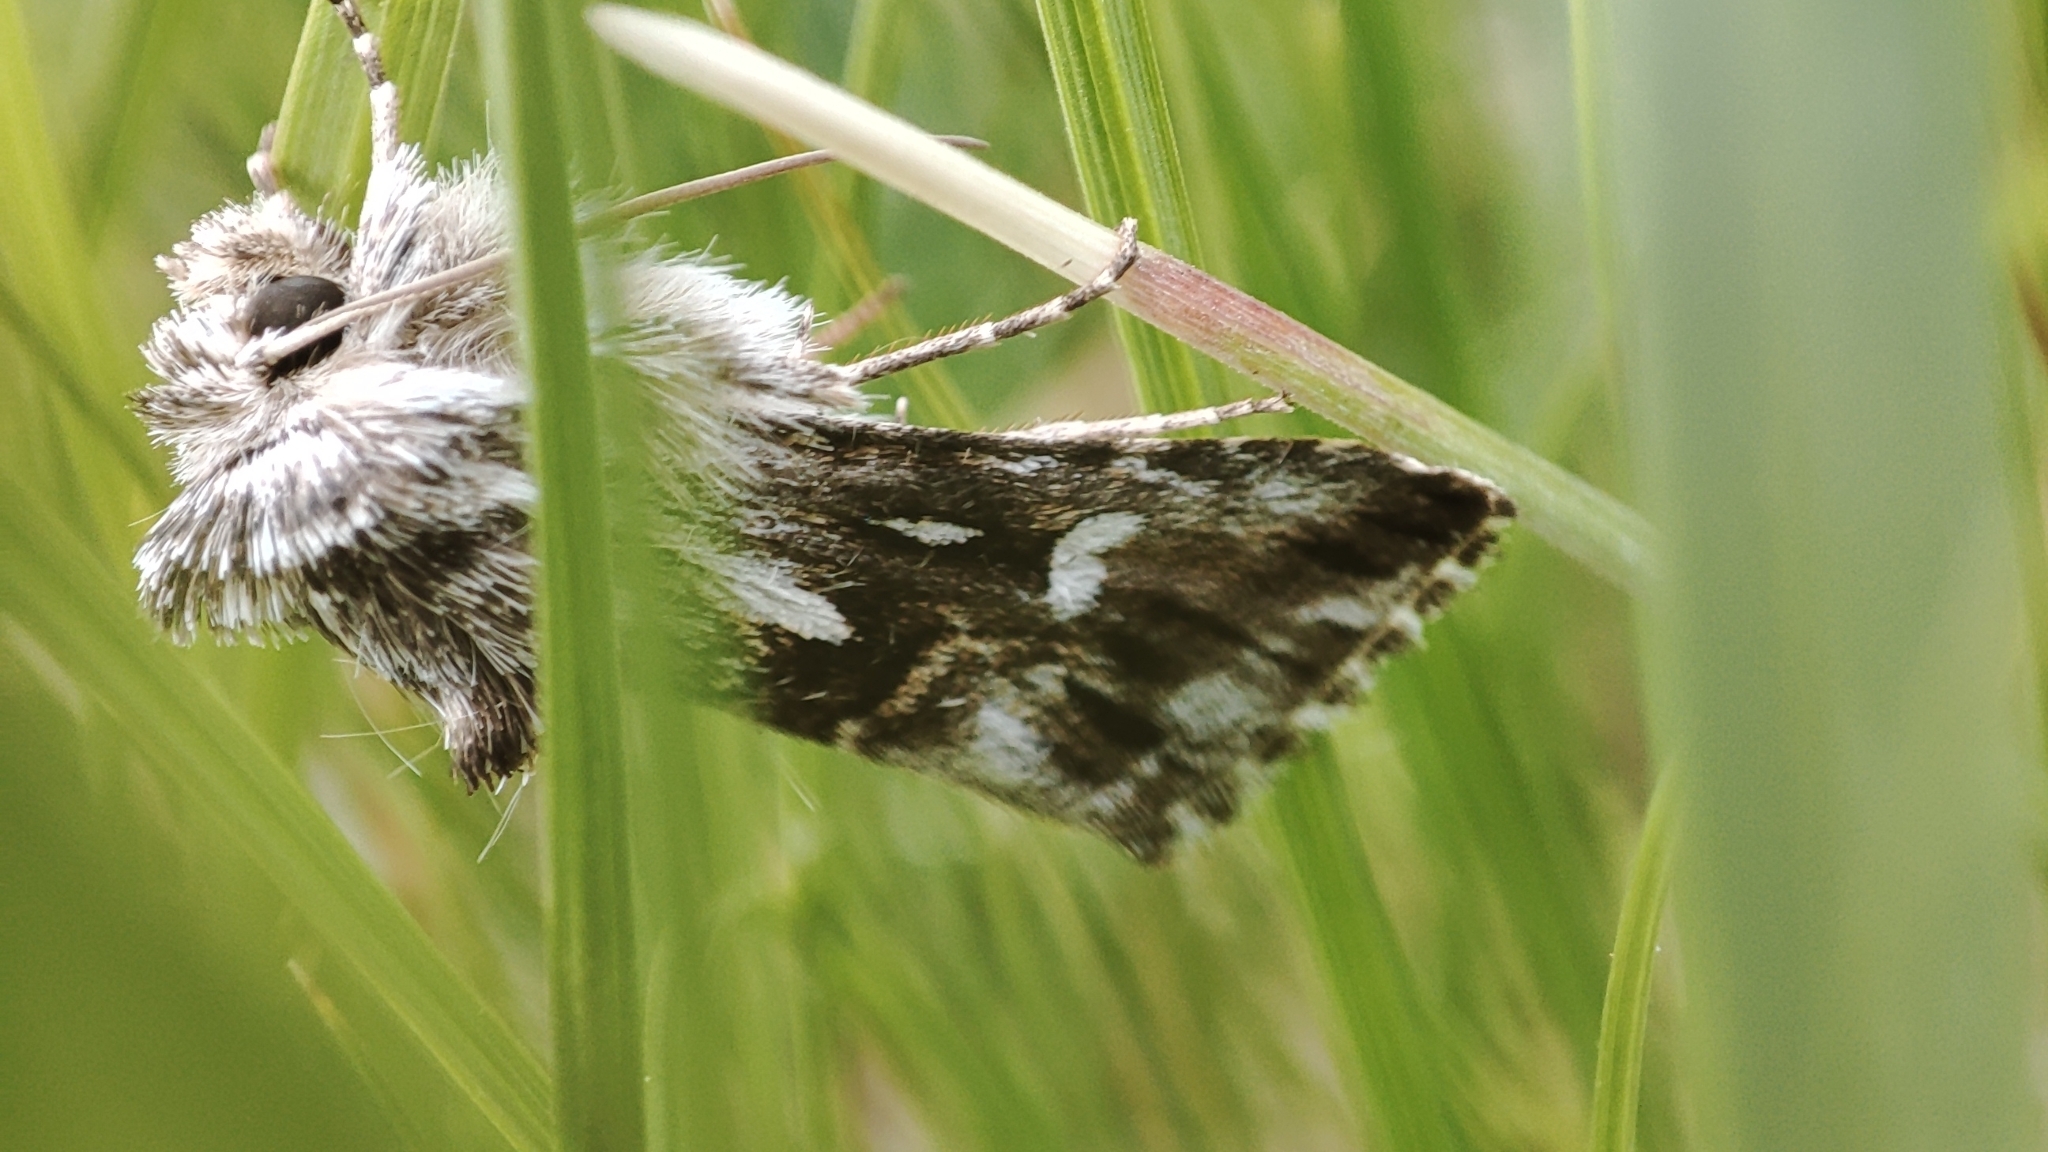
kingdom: Animalia
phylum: Arthropoda
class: Insecta
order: Lepidoptera
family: Noctuidae
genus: Calophasia
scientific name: Calophasia lunula
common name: Toadflax brocade
